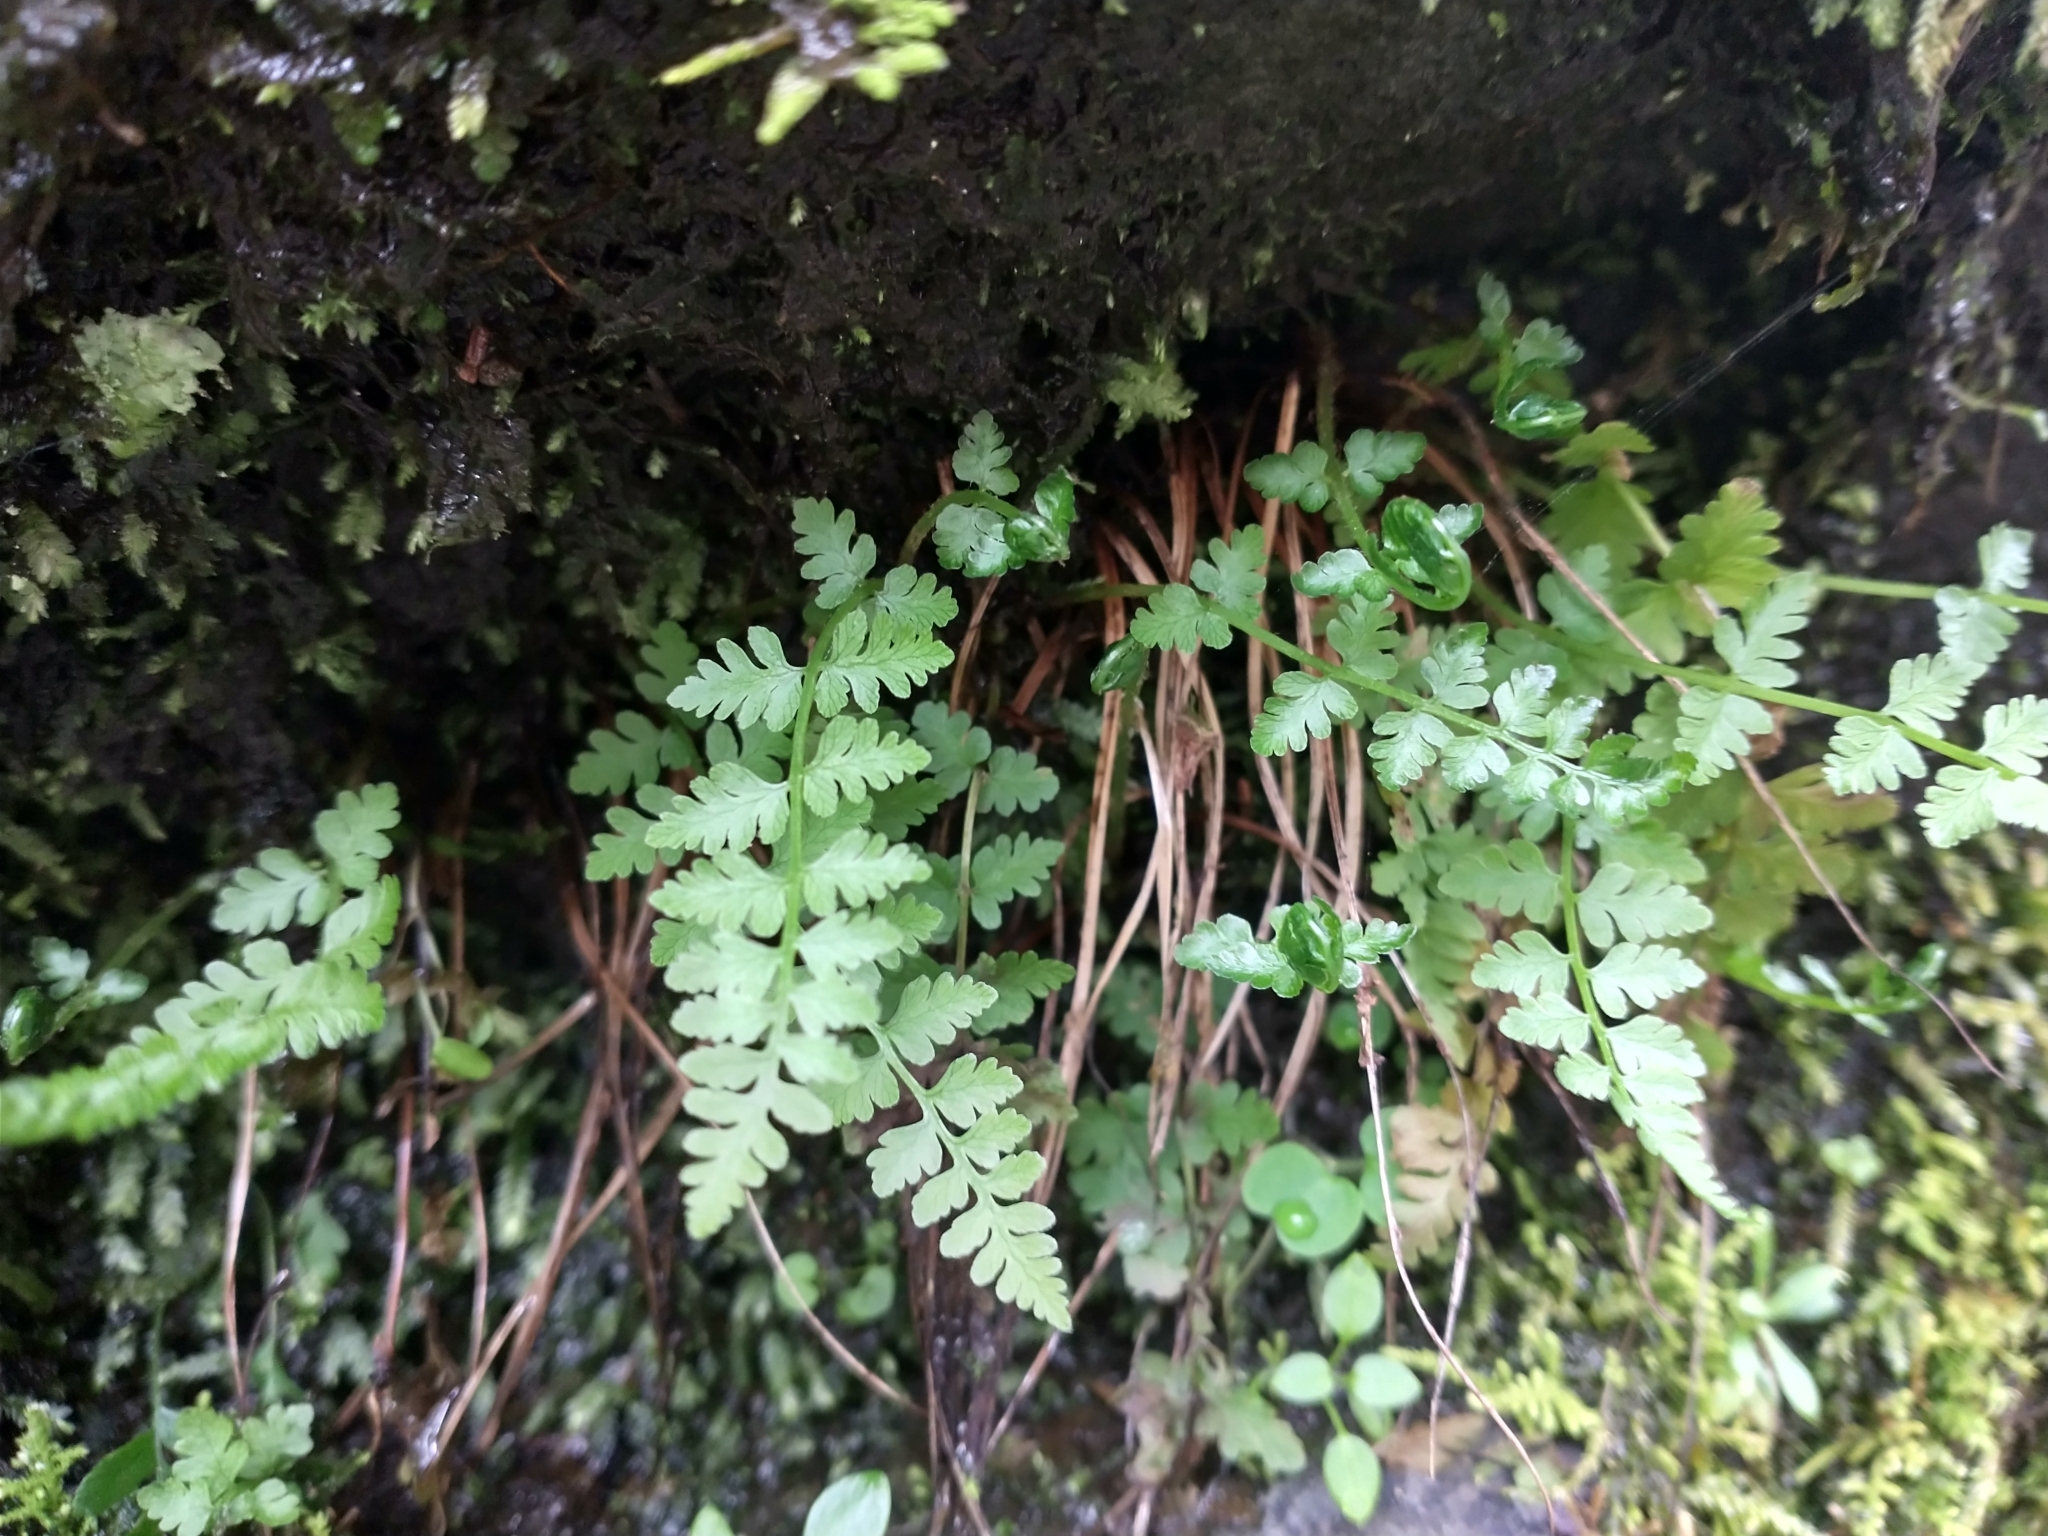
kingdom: Plantae
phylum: Tracheophyta
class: Polypodiopsida
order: Polypodiales
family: Cystopteridaceae
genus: Cystopteris
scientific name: Cystopteris fragilis
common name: Brittle bladder fern
